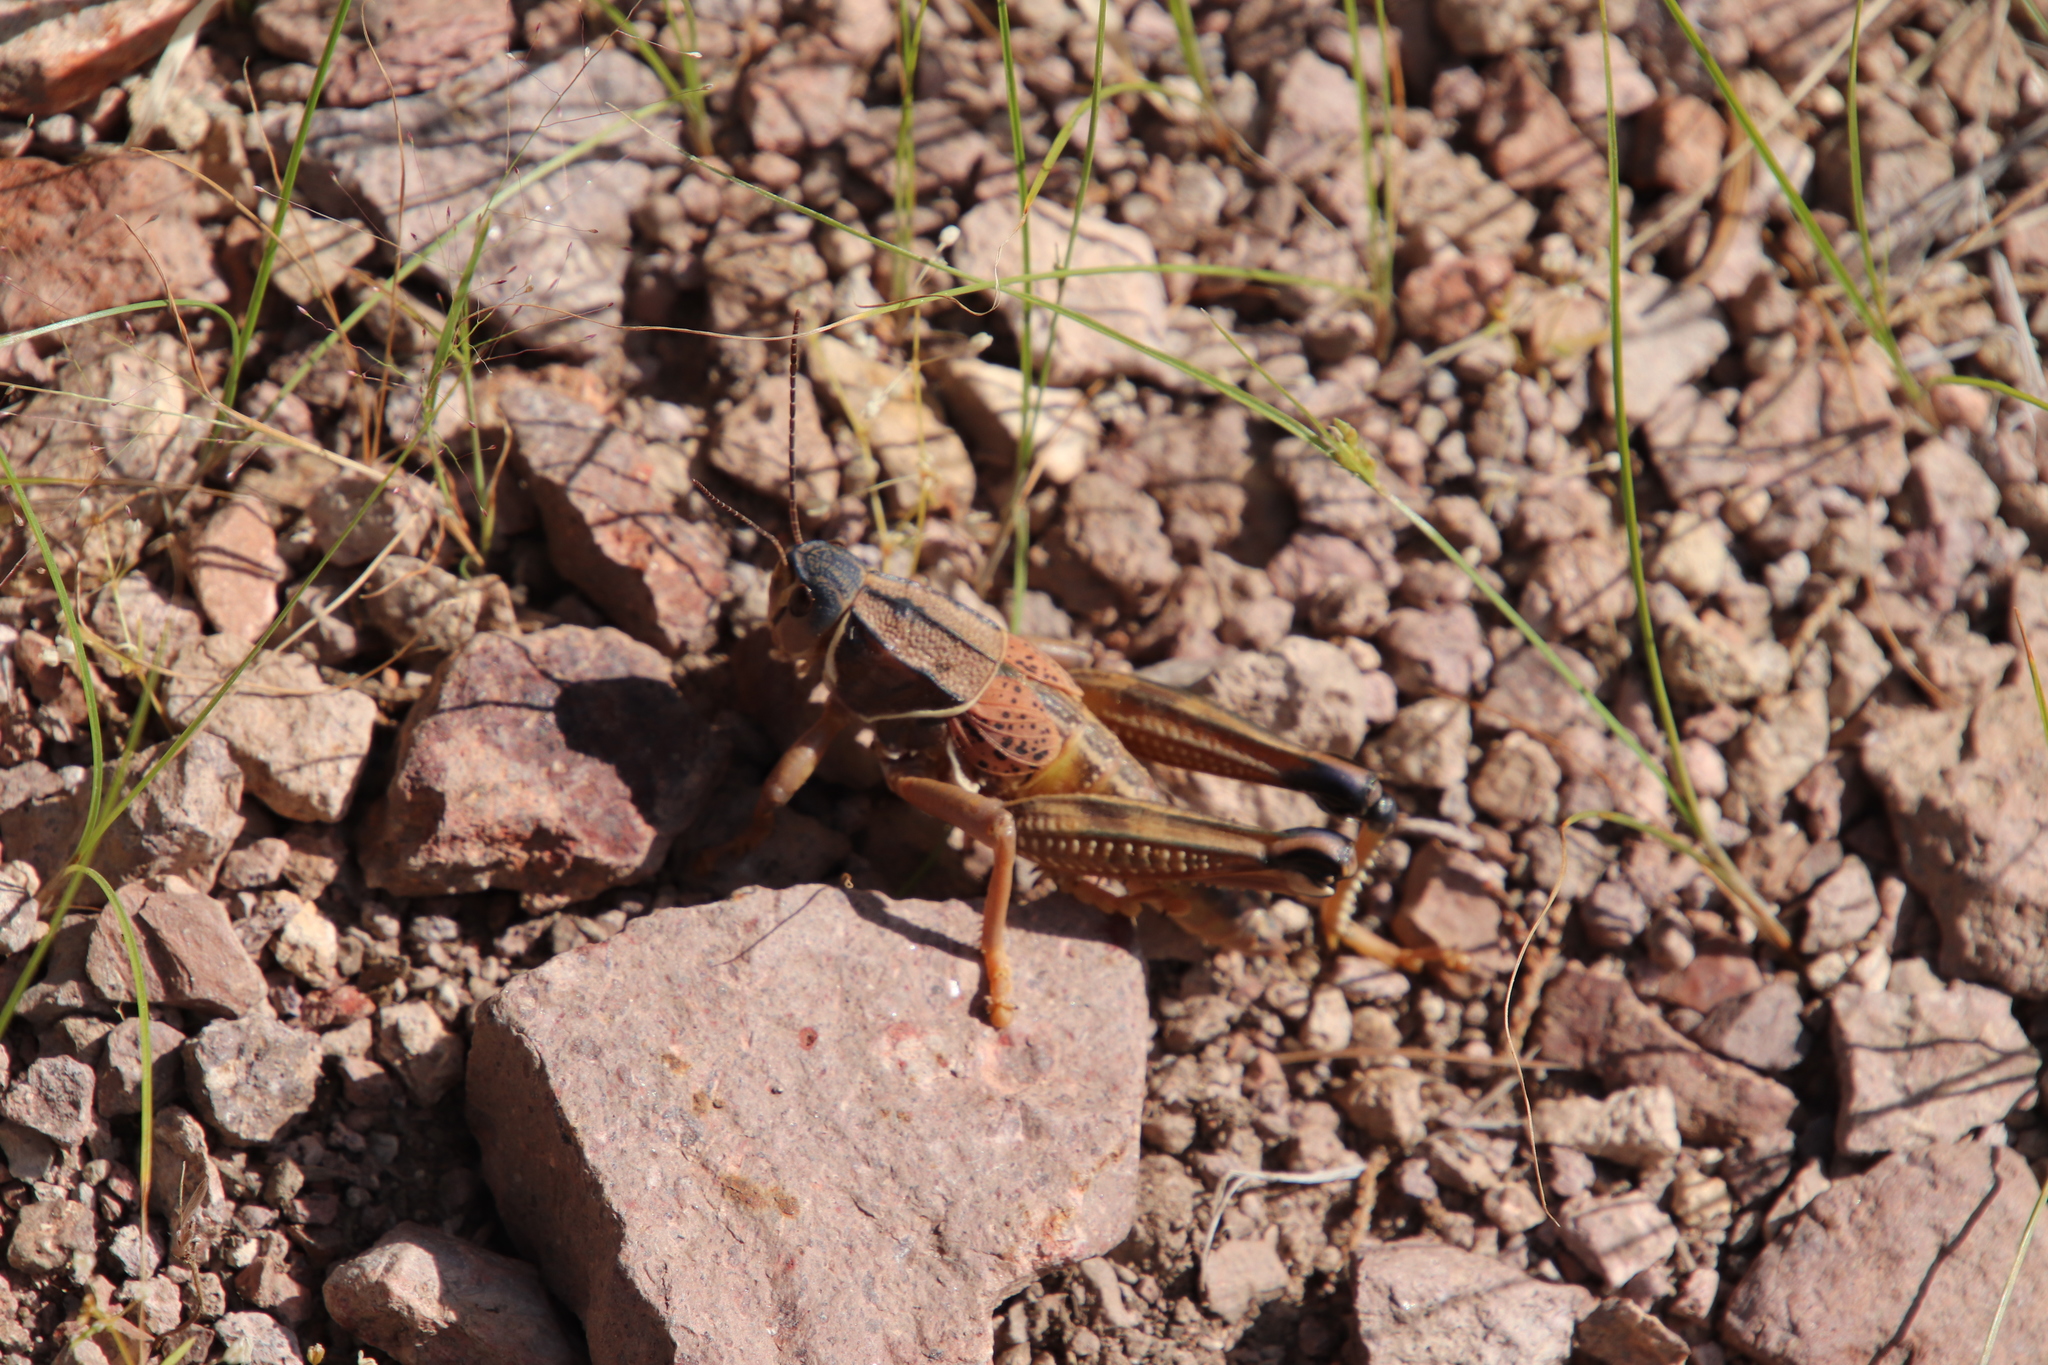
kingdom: Animalia
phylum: Arthropoda
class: Insecta
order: Orthoptera
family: Romaleidae
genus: Brachystola
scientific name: Brachystola magna
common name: Plains lubber grasshopper
